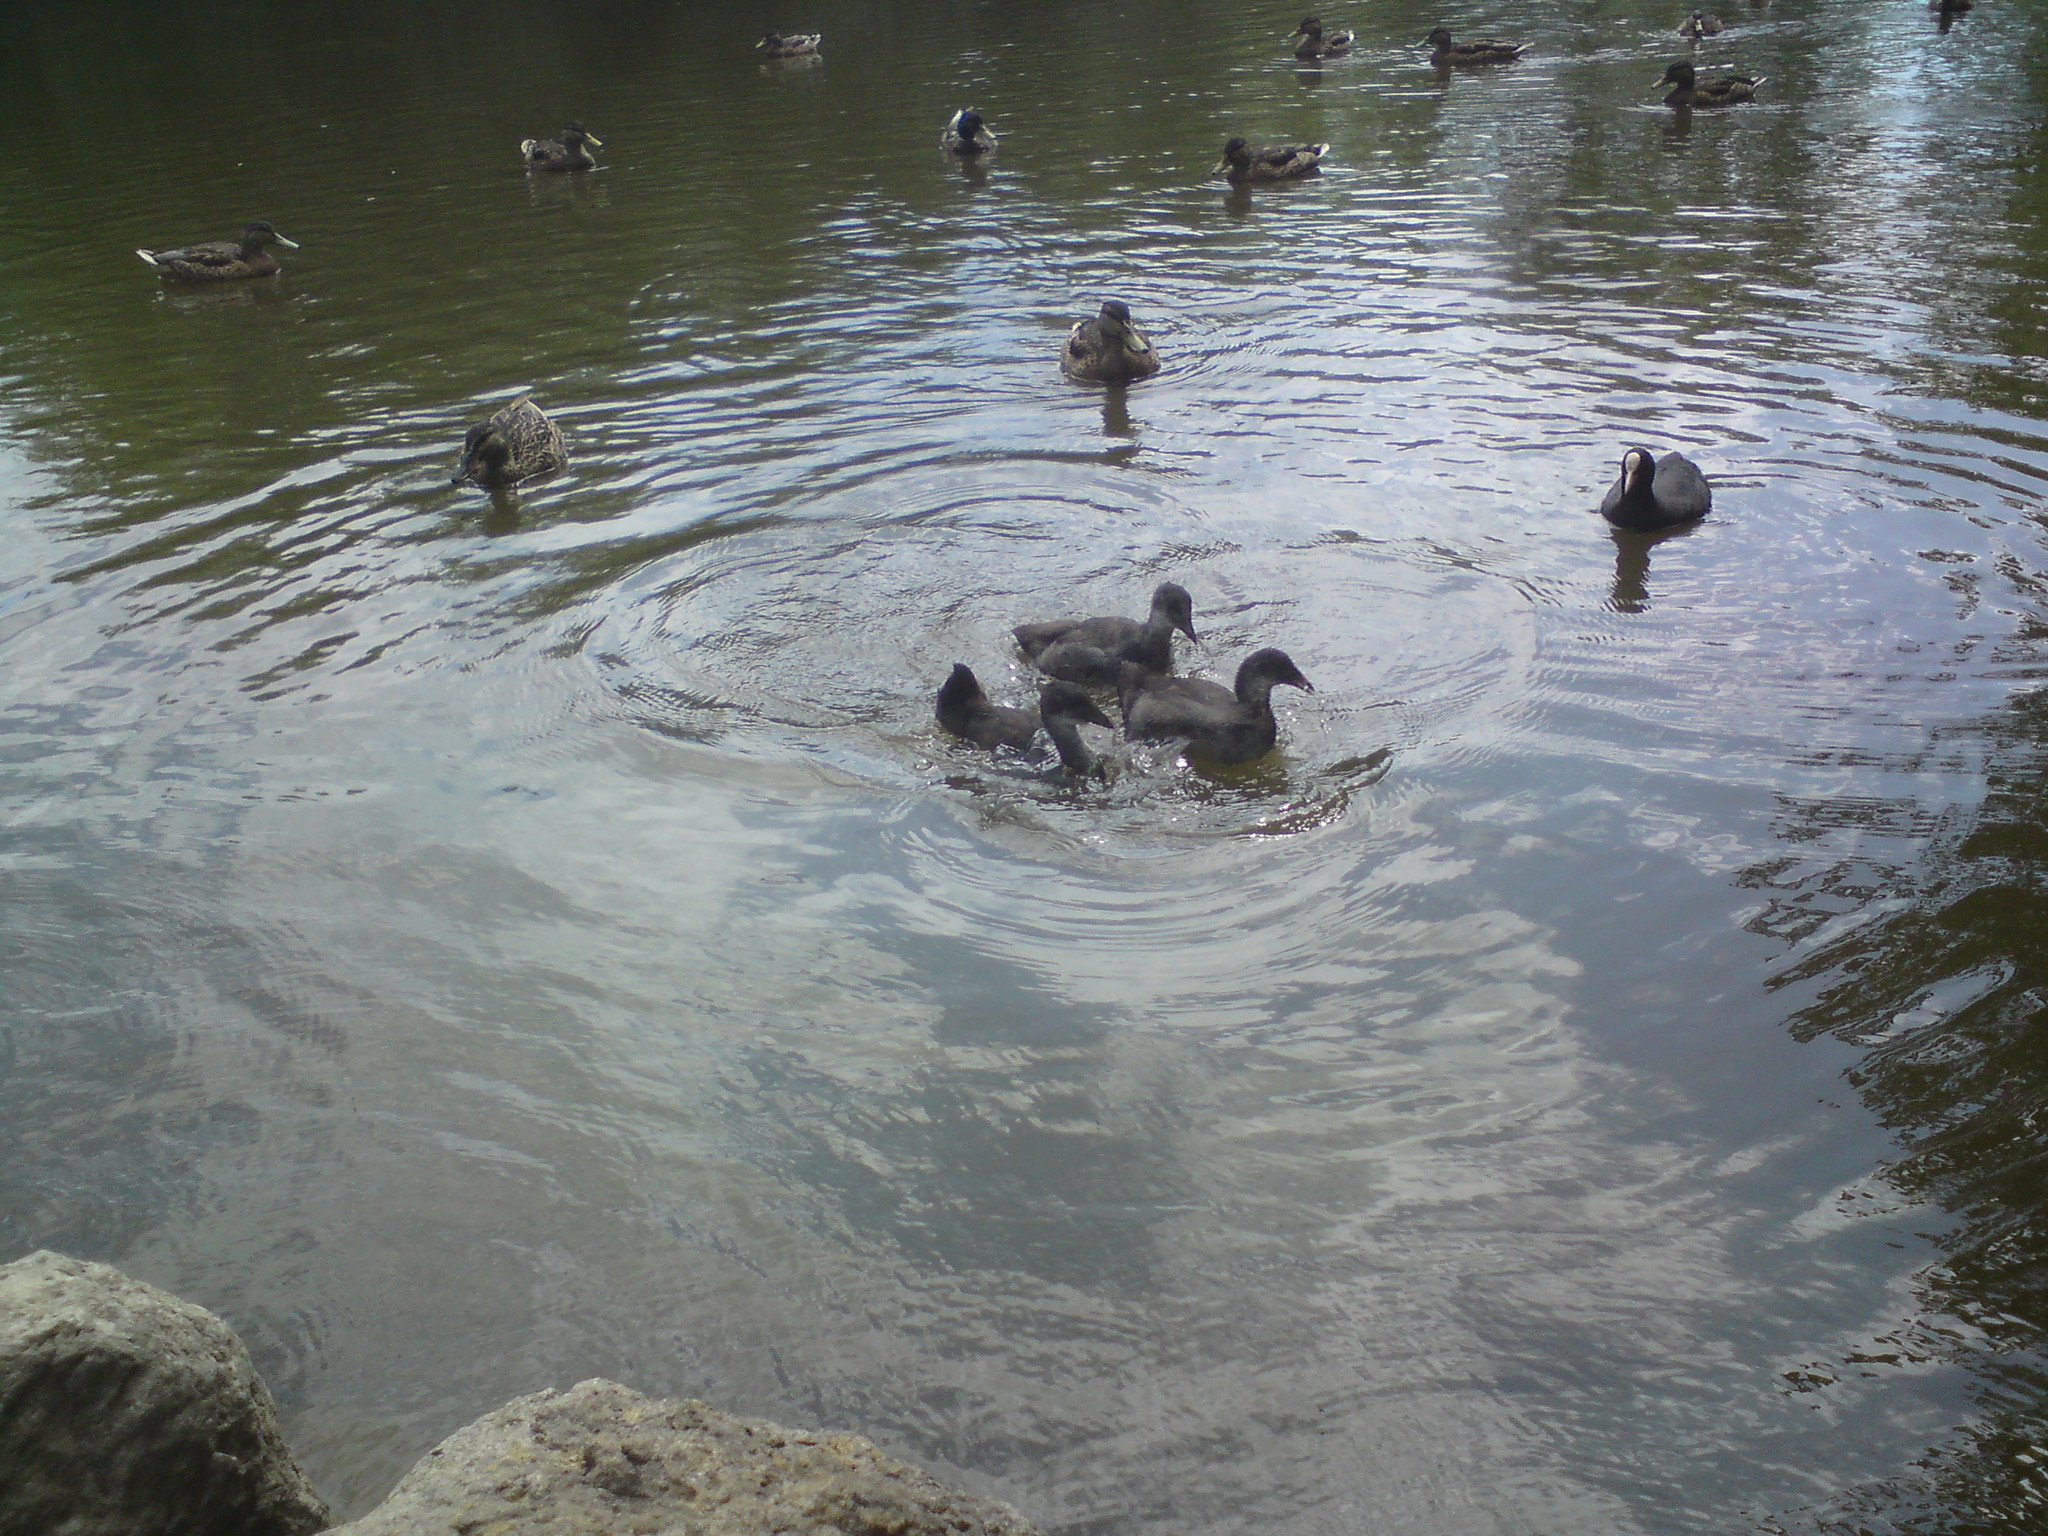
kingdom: Animalia
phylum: Chordata
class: Aves
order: Gruiformes
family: Rallidae
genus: Fulica
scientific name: Fulica atra
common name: Eurasian coot
